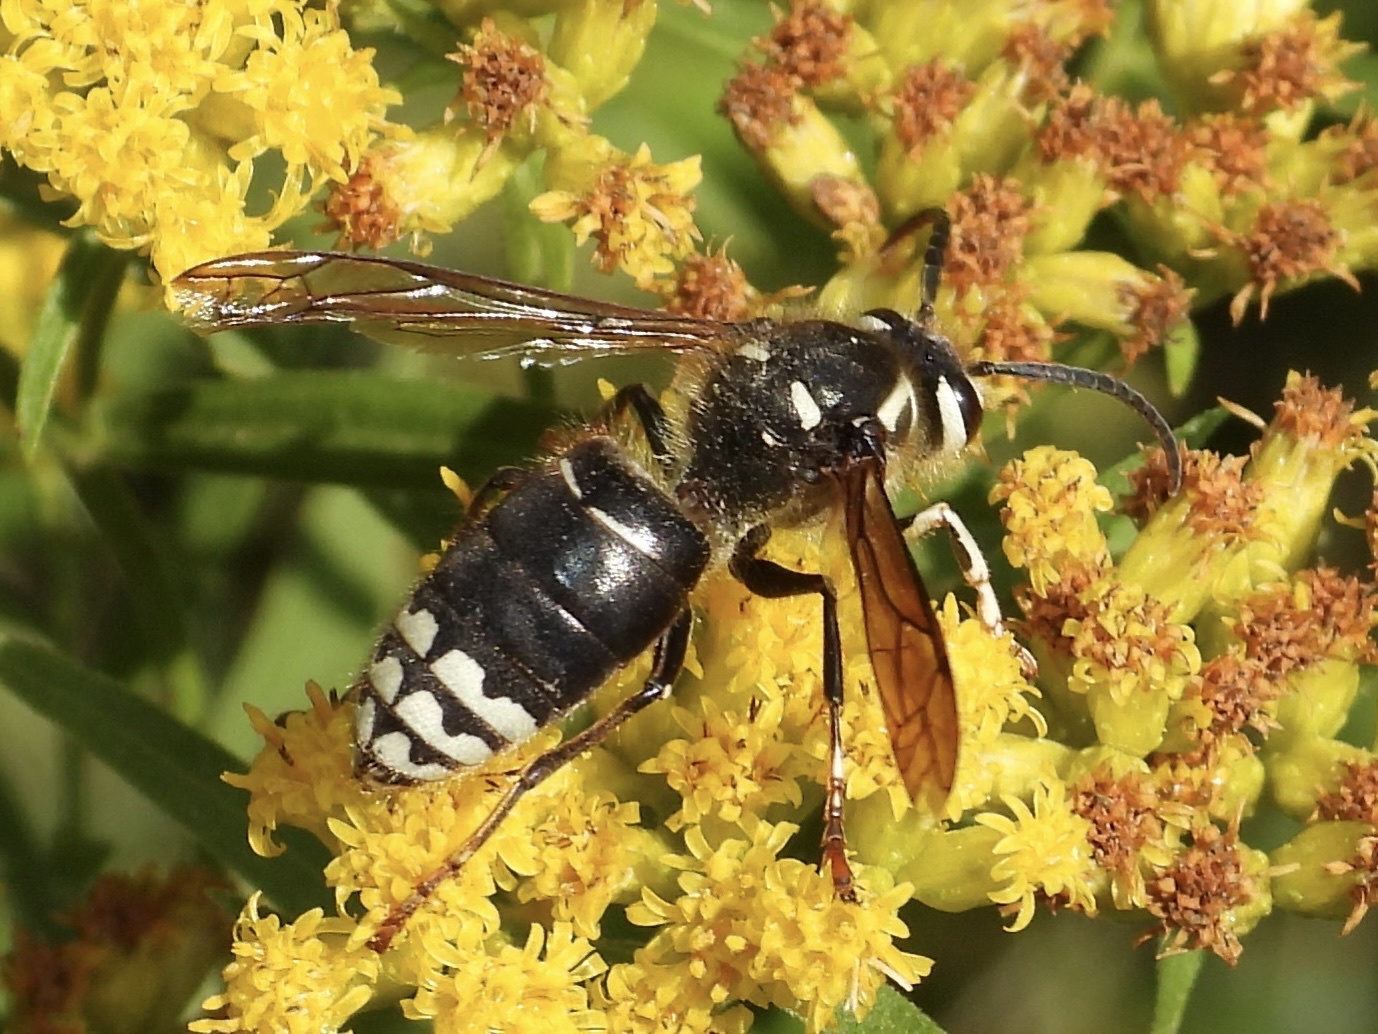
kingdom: Animalia
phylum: Arthropoda
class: Insecta
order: Hymenoptera
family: Vespidae
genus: Dolichovespula
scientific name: Dolichovespula maculata
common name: Bald-faced hornet
